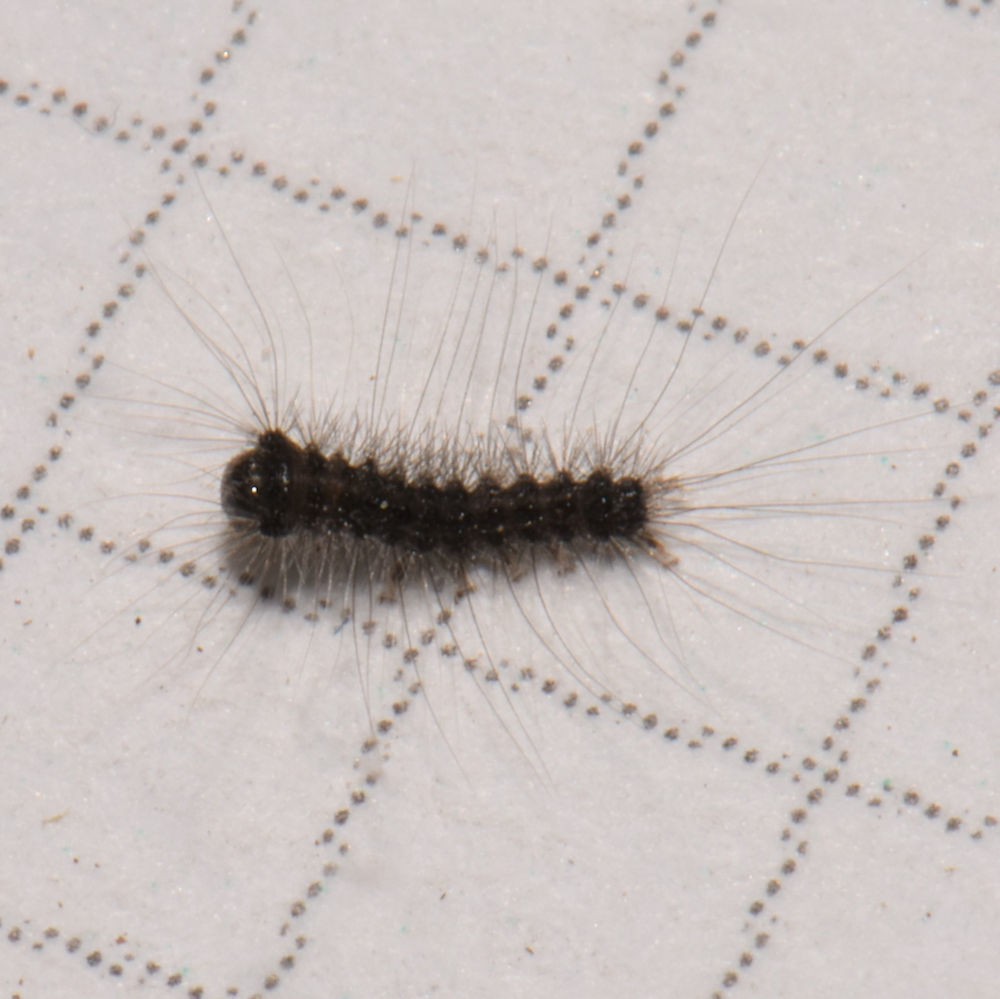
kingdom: Animalia
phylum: Arthropoda
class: Insecta
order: Lepidoptera
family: Erebidae
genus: Lymantria
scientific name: Lymantria dispar
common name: Gypsy moth
